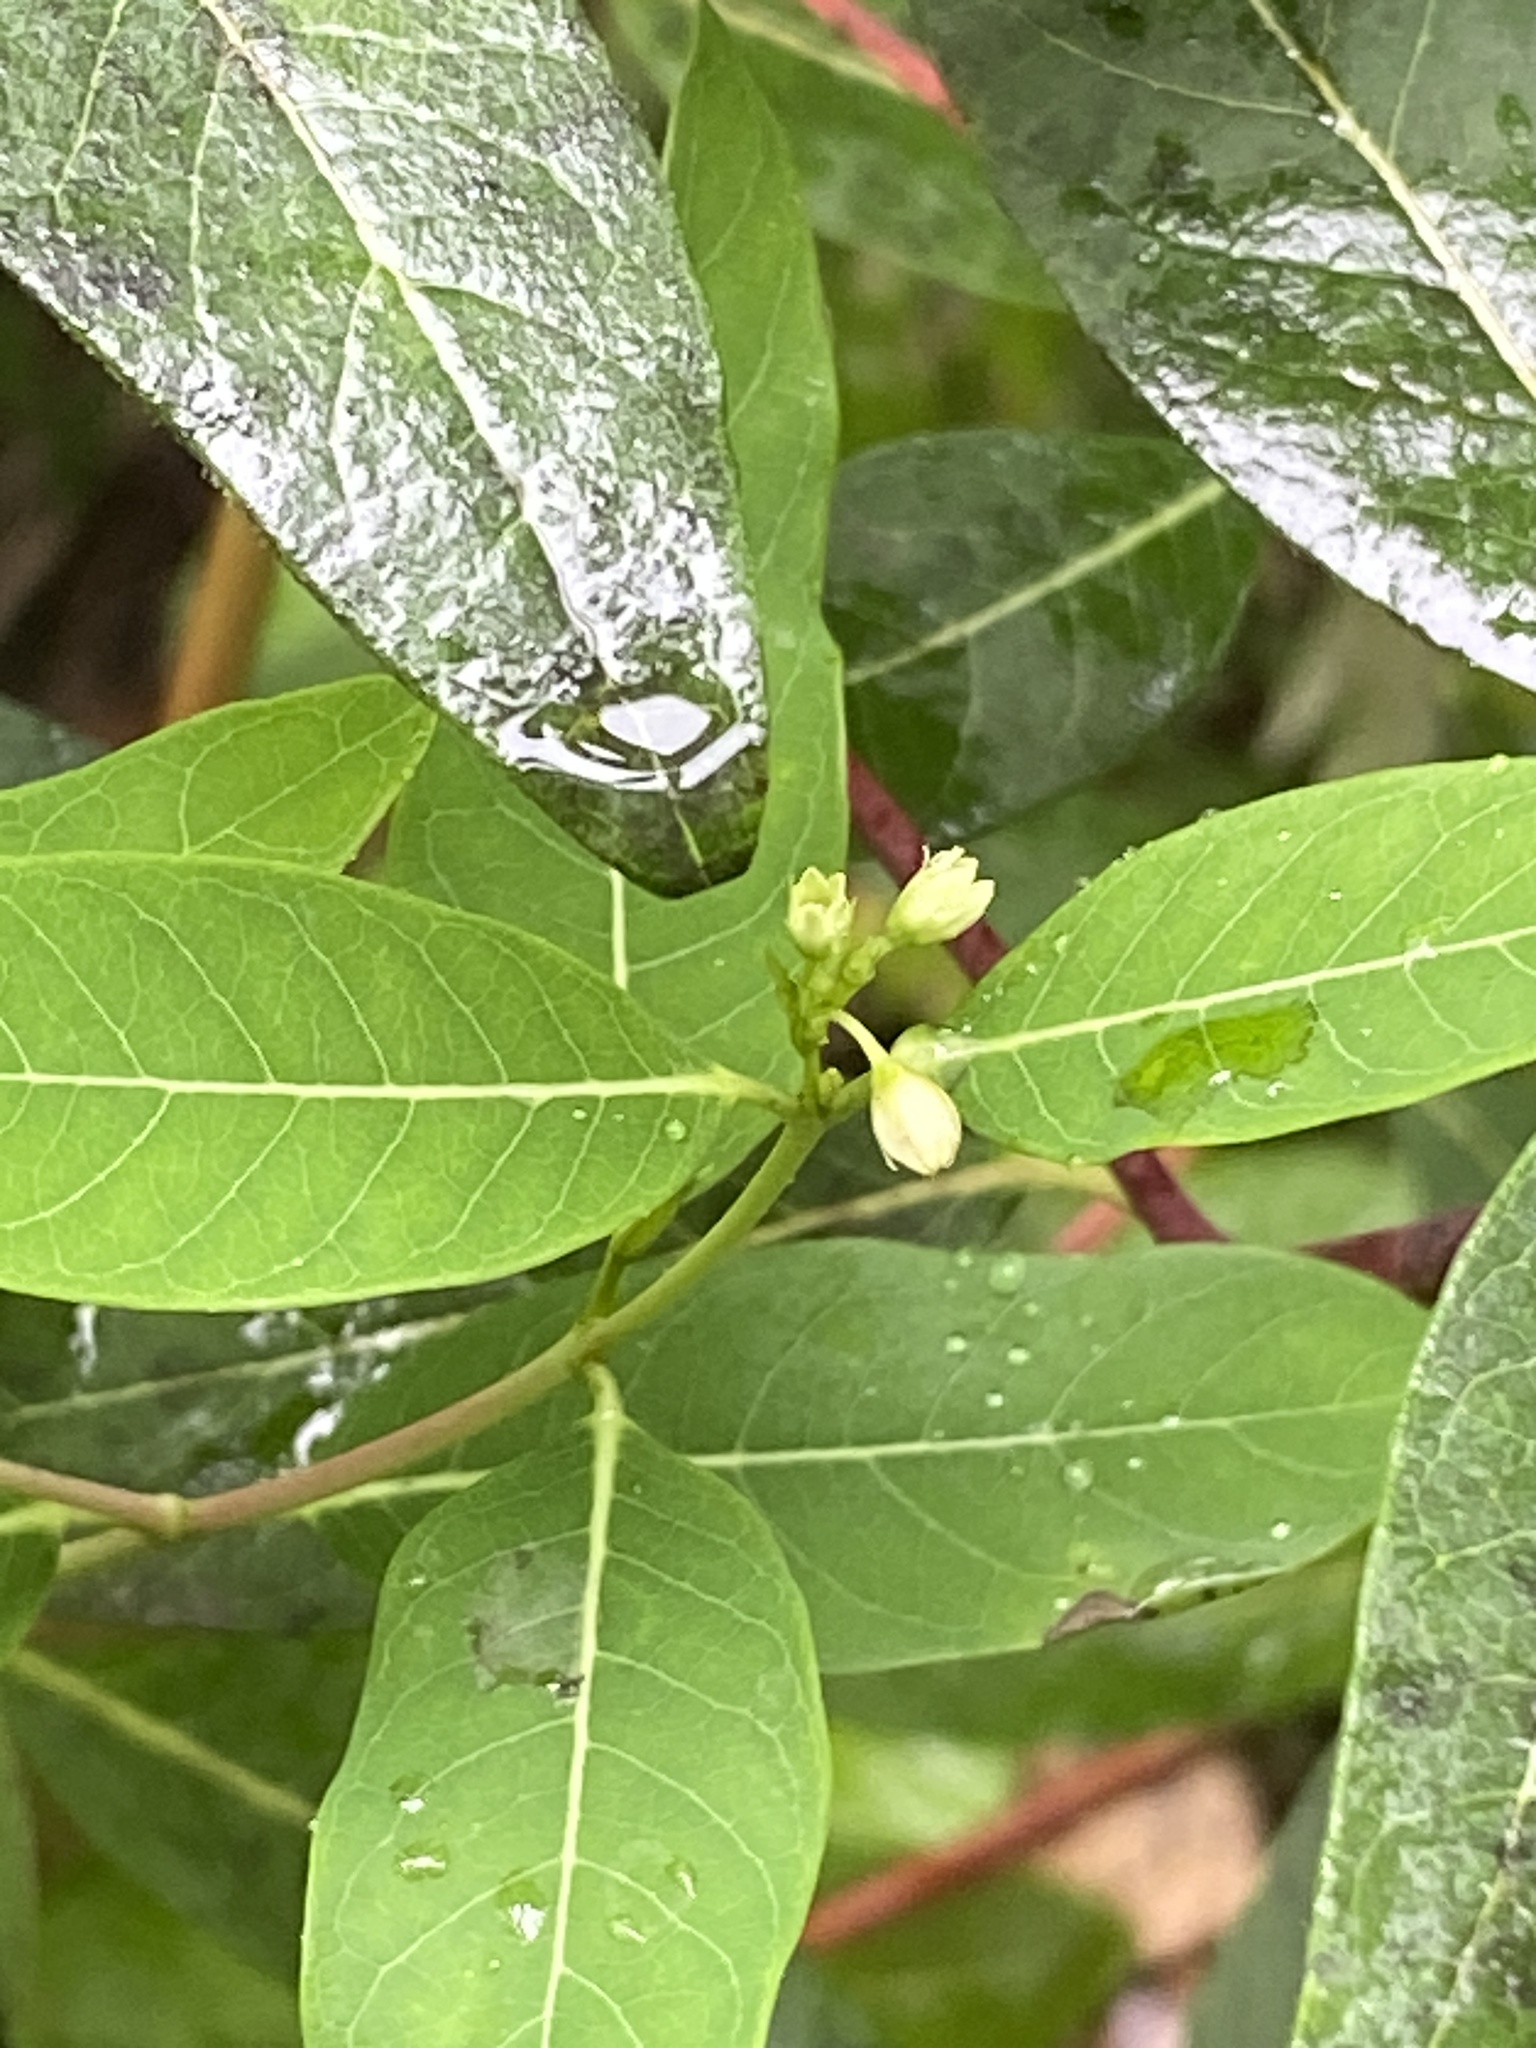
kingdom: Plantae
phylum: Tracheophyta
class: Magnoliopsida
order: Gentianales
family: Apocynaceae
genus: Apocynum
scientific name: Apocynum cannabinum
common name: Hemp dogbane
